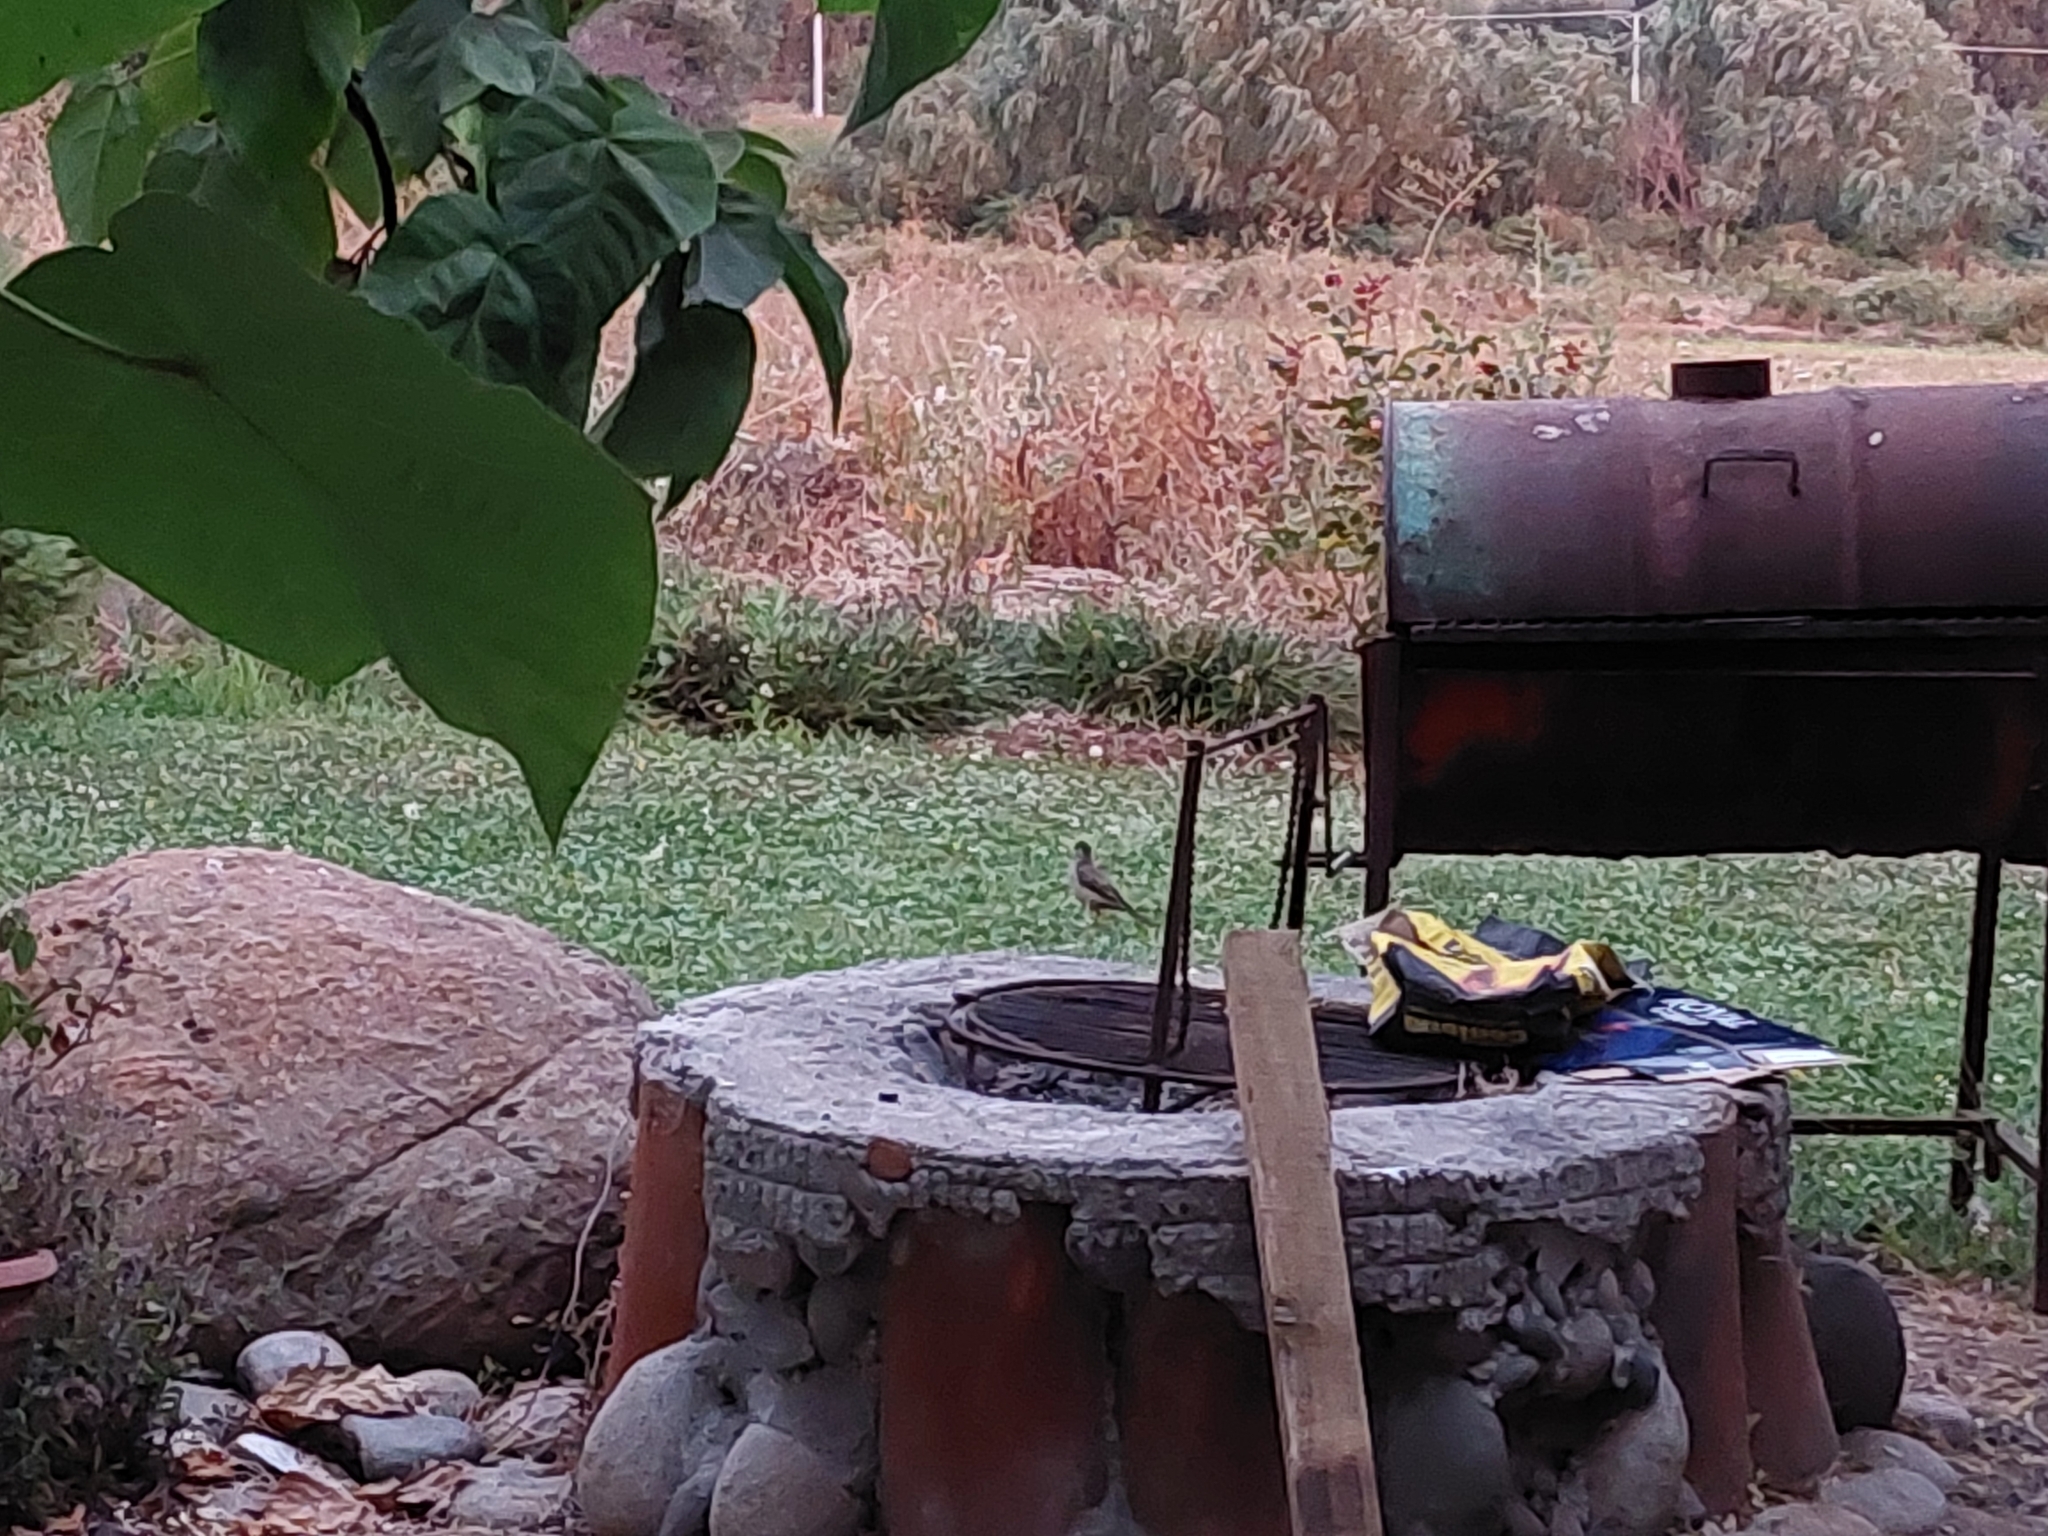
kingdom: Animalia
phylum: Chordata
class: Aves
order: Passeriformes
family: Turdidae
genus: Turdus
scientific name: Turdus falcklandii
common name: Austral thrush
